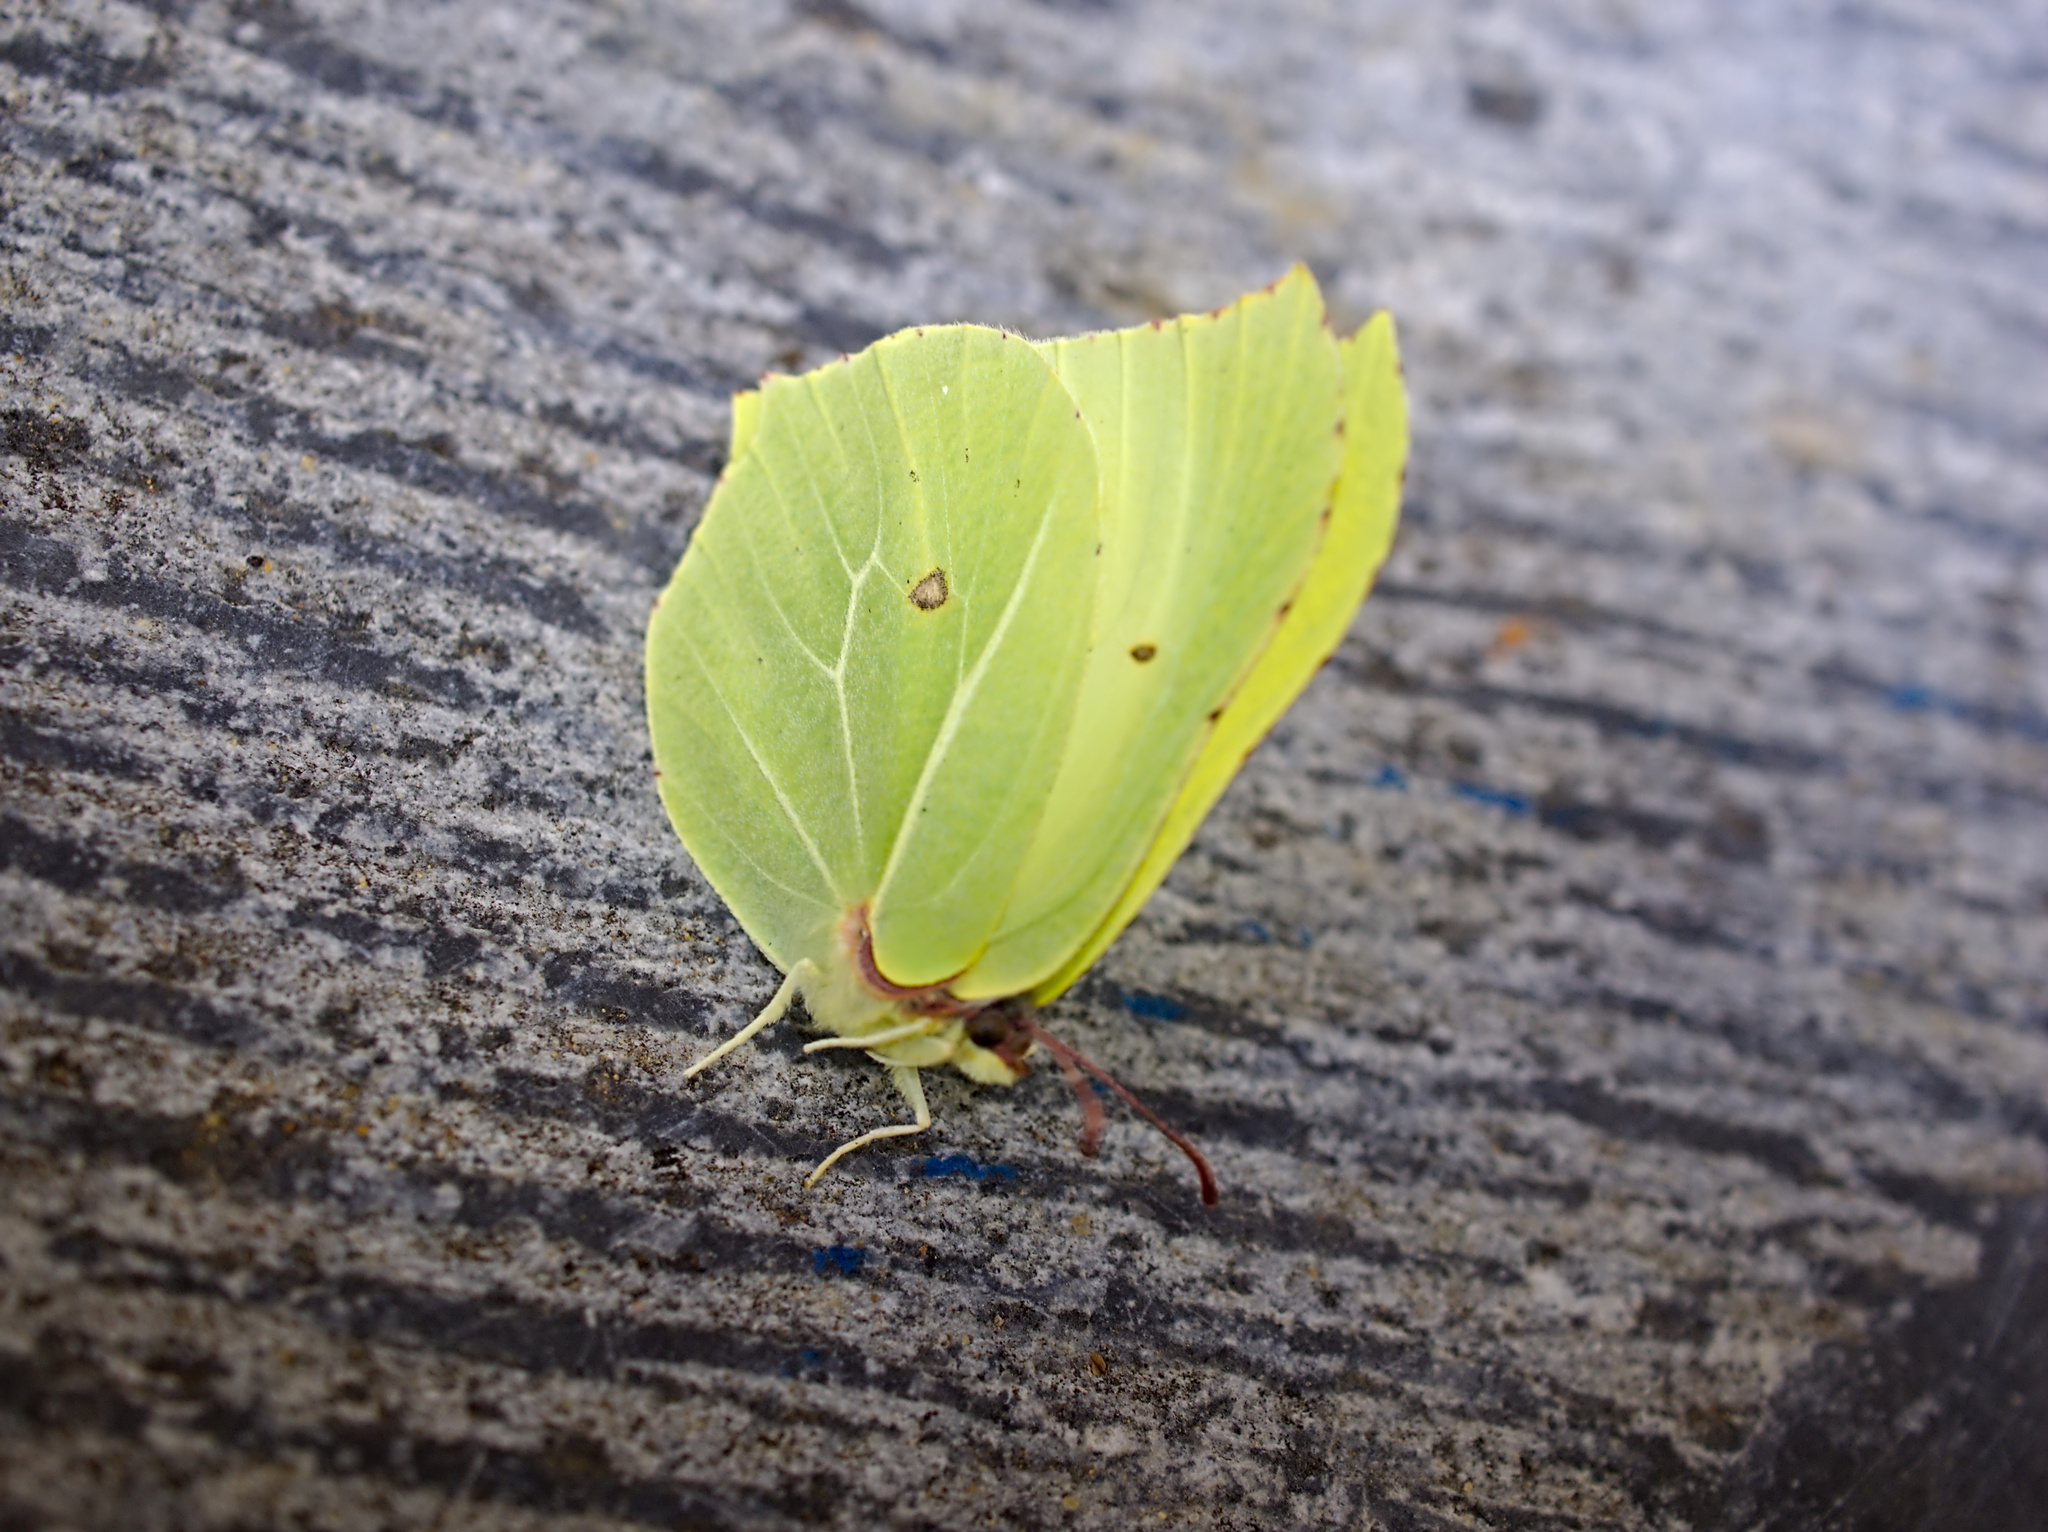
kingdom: Animalia
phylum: Arthropoda
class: Insecta
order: Lepidoptera
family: Pieridae
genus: Gonepteryx
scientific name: Gonepteryx rhamni
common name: Brimstone
